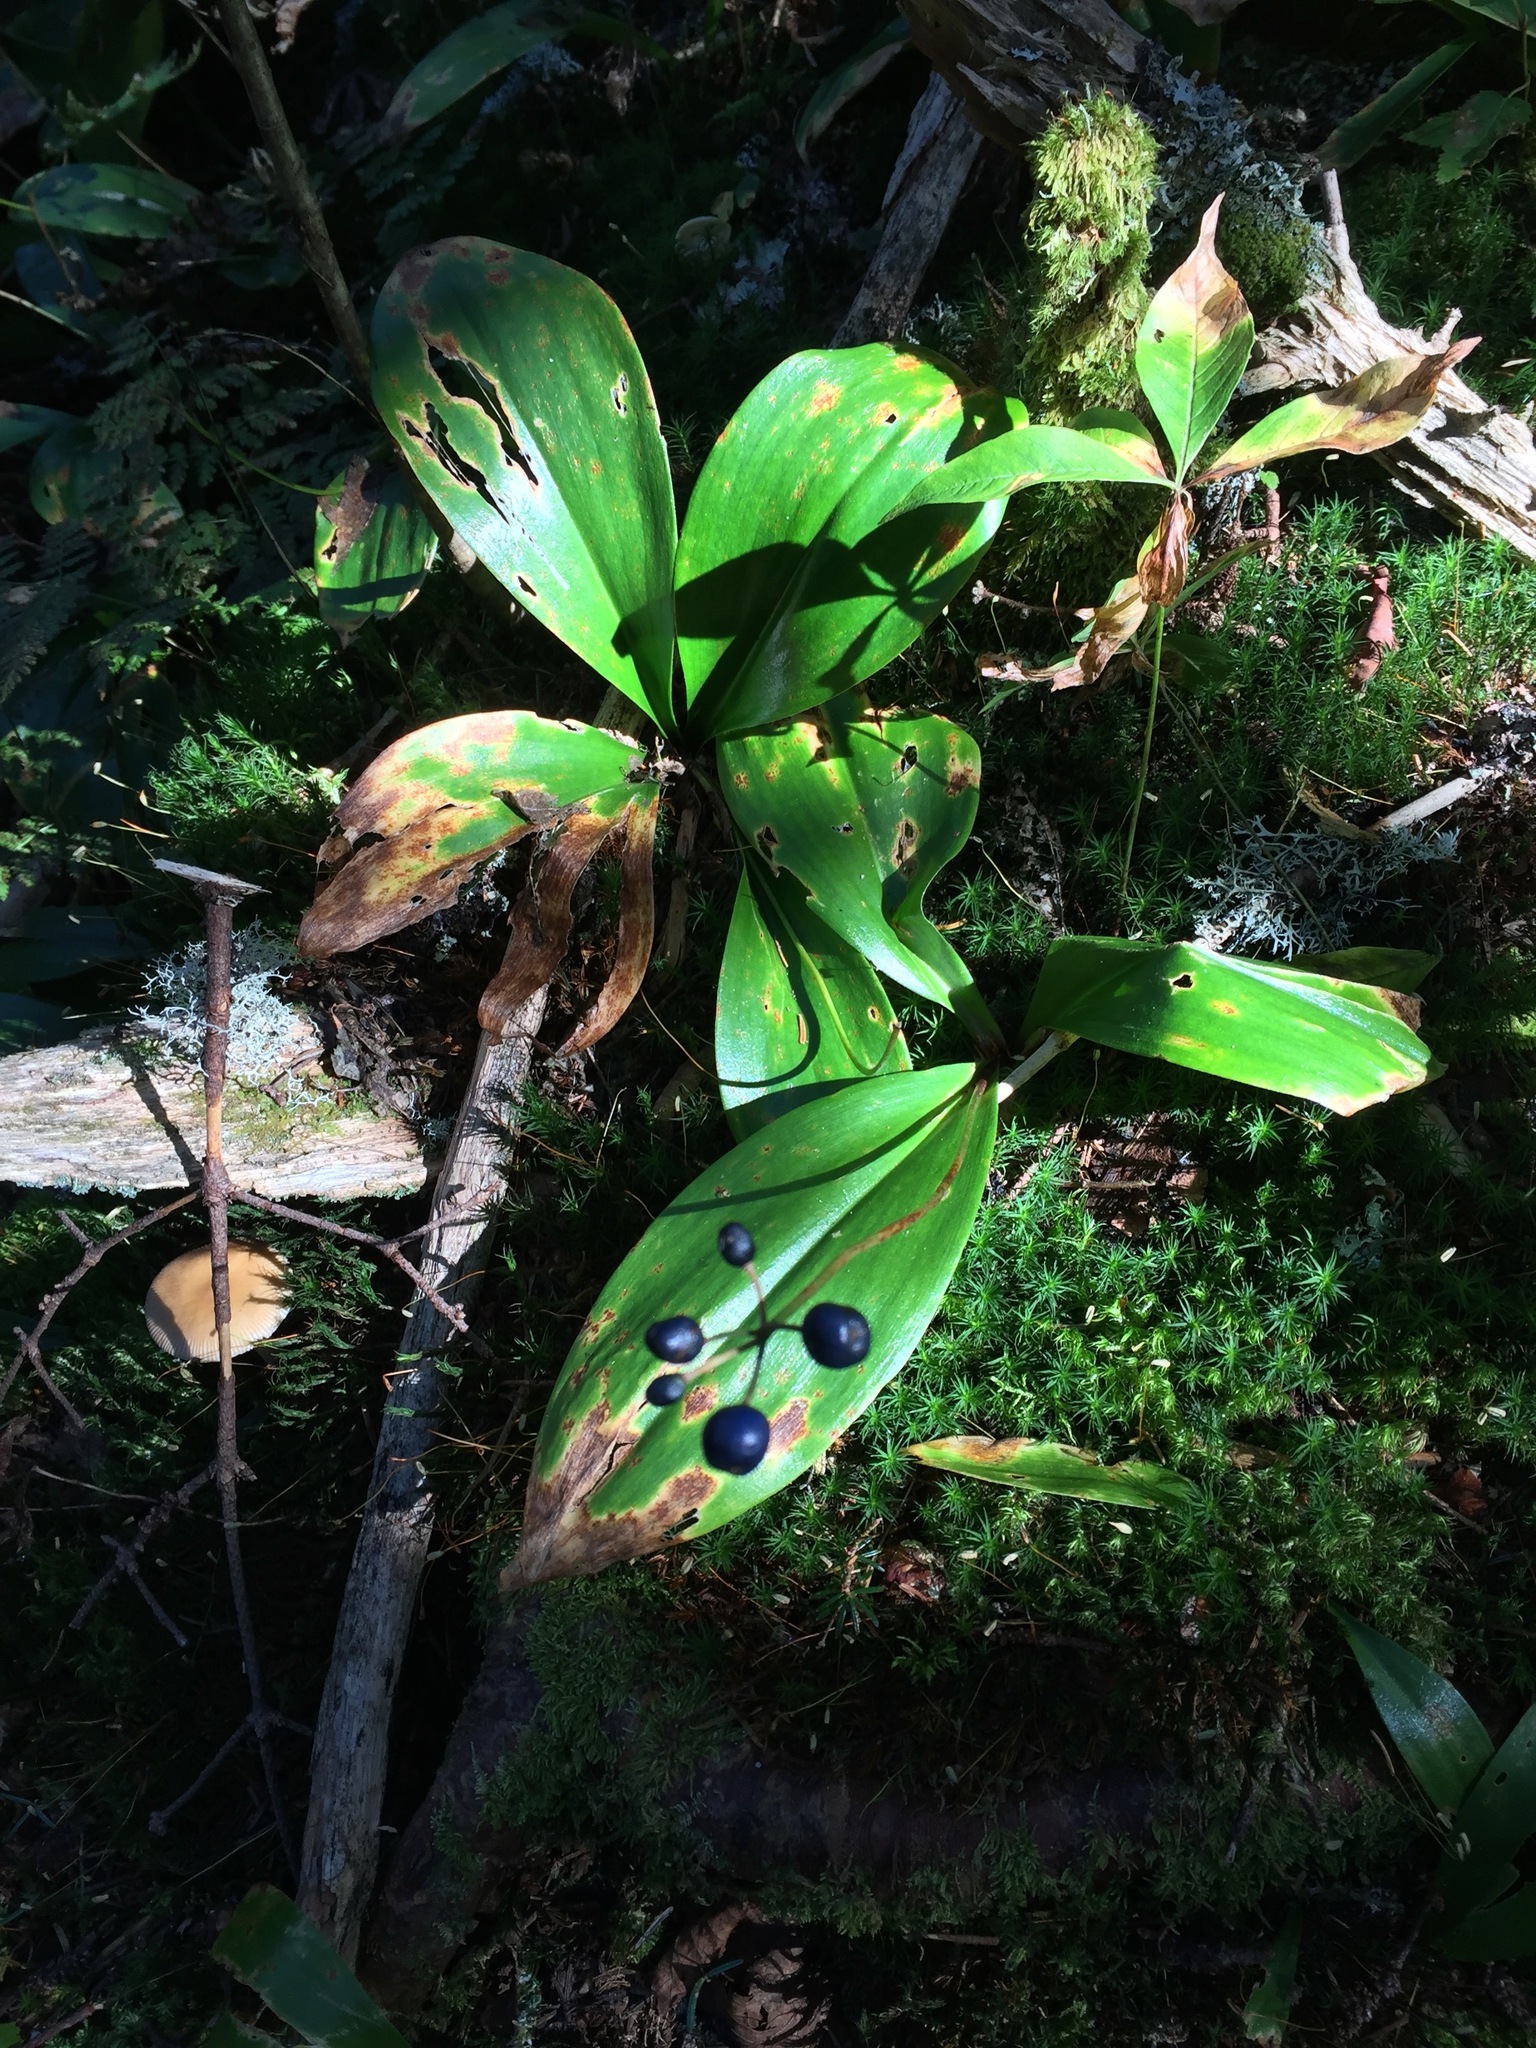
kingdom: Plantae
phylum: Tracheophyta
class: Liliopsida
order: Liliales
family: Liliaceae
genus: Clintonia
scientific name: Clintonia borealis
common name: Yellow clintonia
